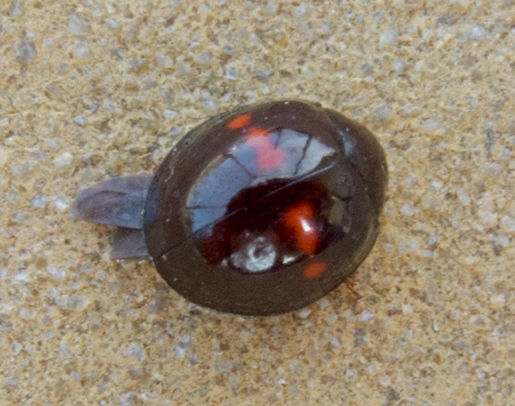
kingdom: Animalia
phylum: Arthropoda
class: Insecta
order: Coleoptera
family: Coccinellidae
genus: Chilocorus
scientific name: Chilocorus bipustulatus
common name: Heather ladybird
